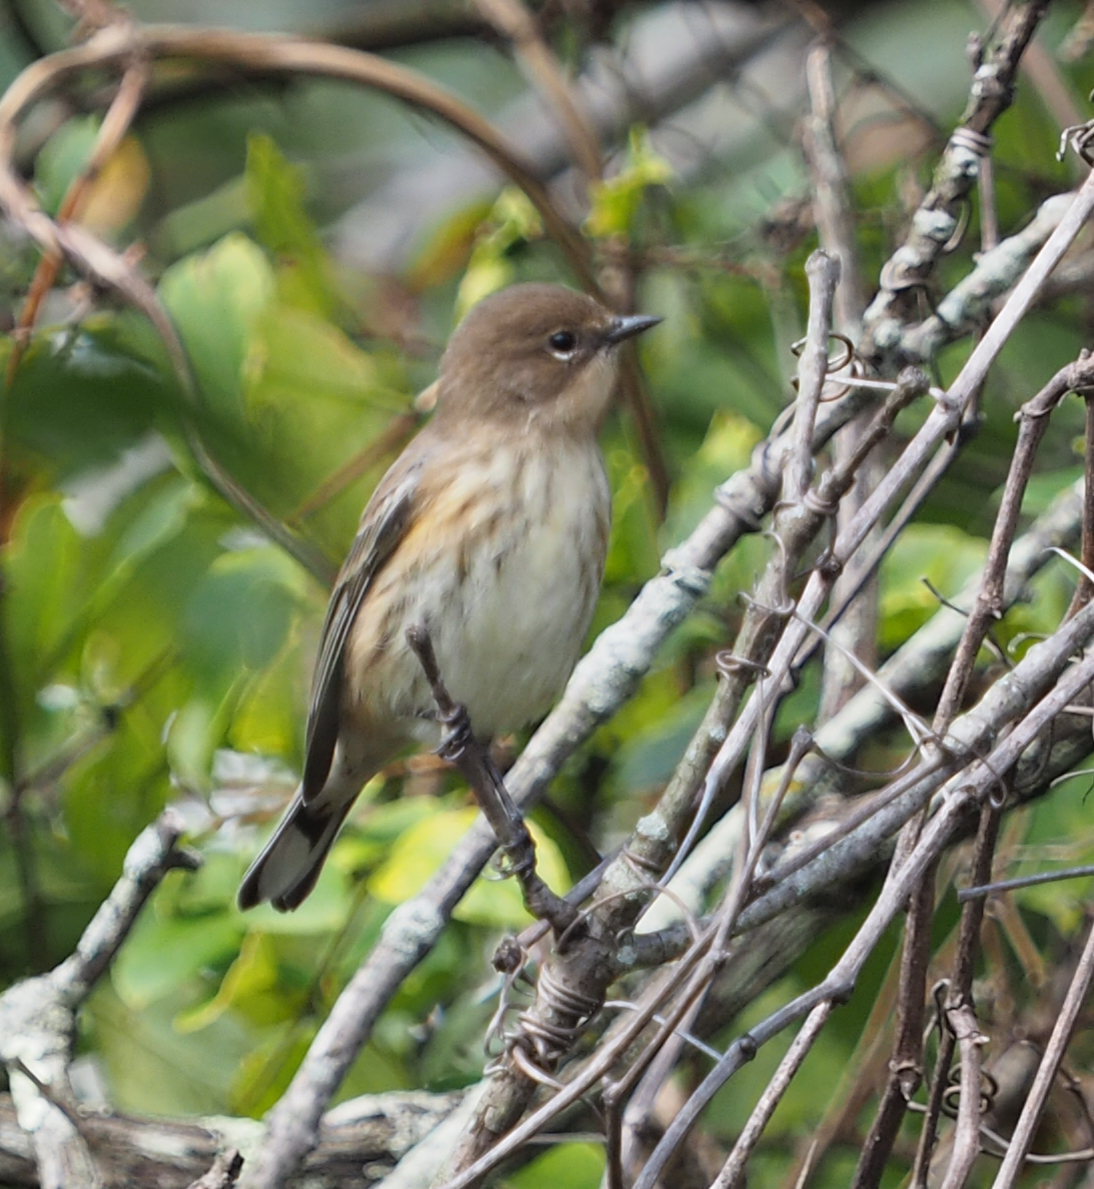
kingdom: Animalia
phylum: Chordata
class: Aves
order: Passeriformes
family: Parulidae
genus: Setophaga
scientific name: Setophaga coronata
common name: Myrtle warbler
